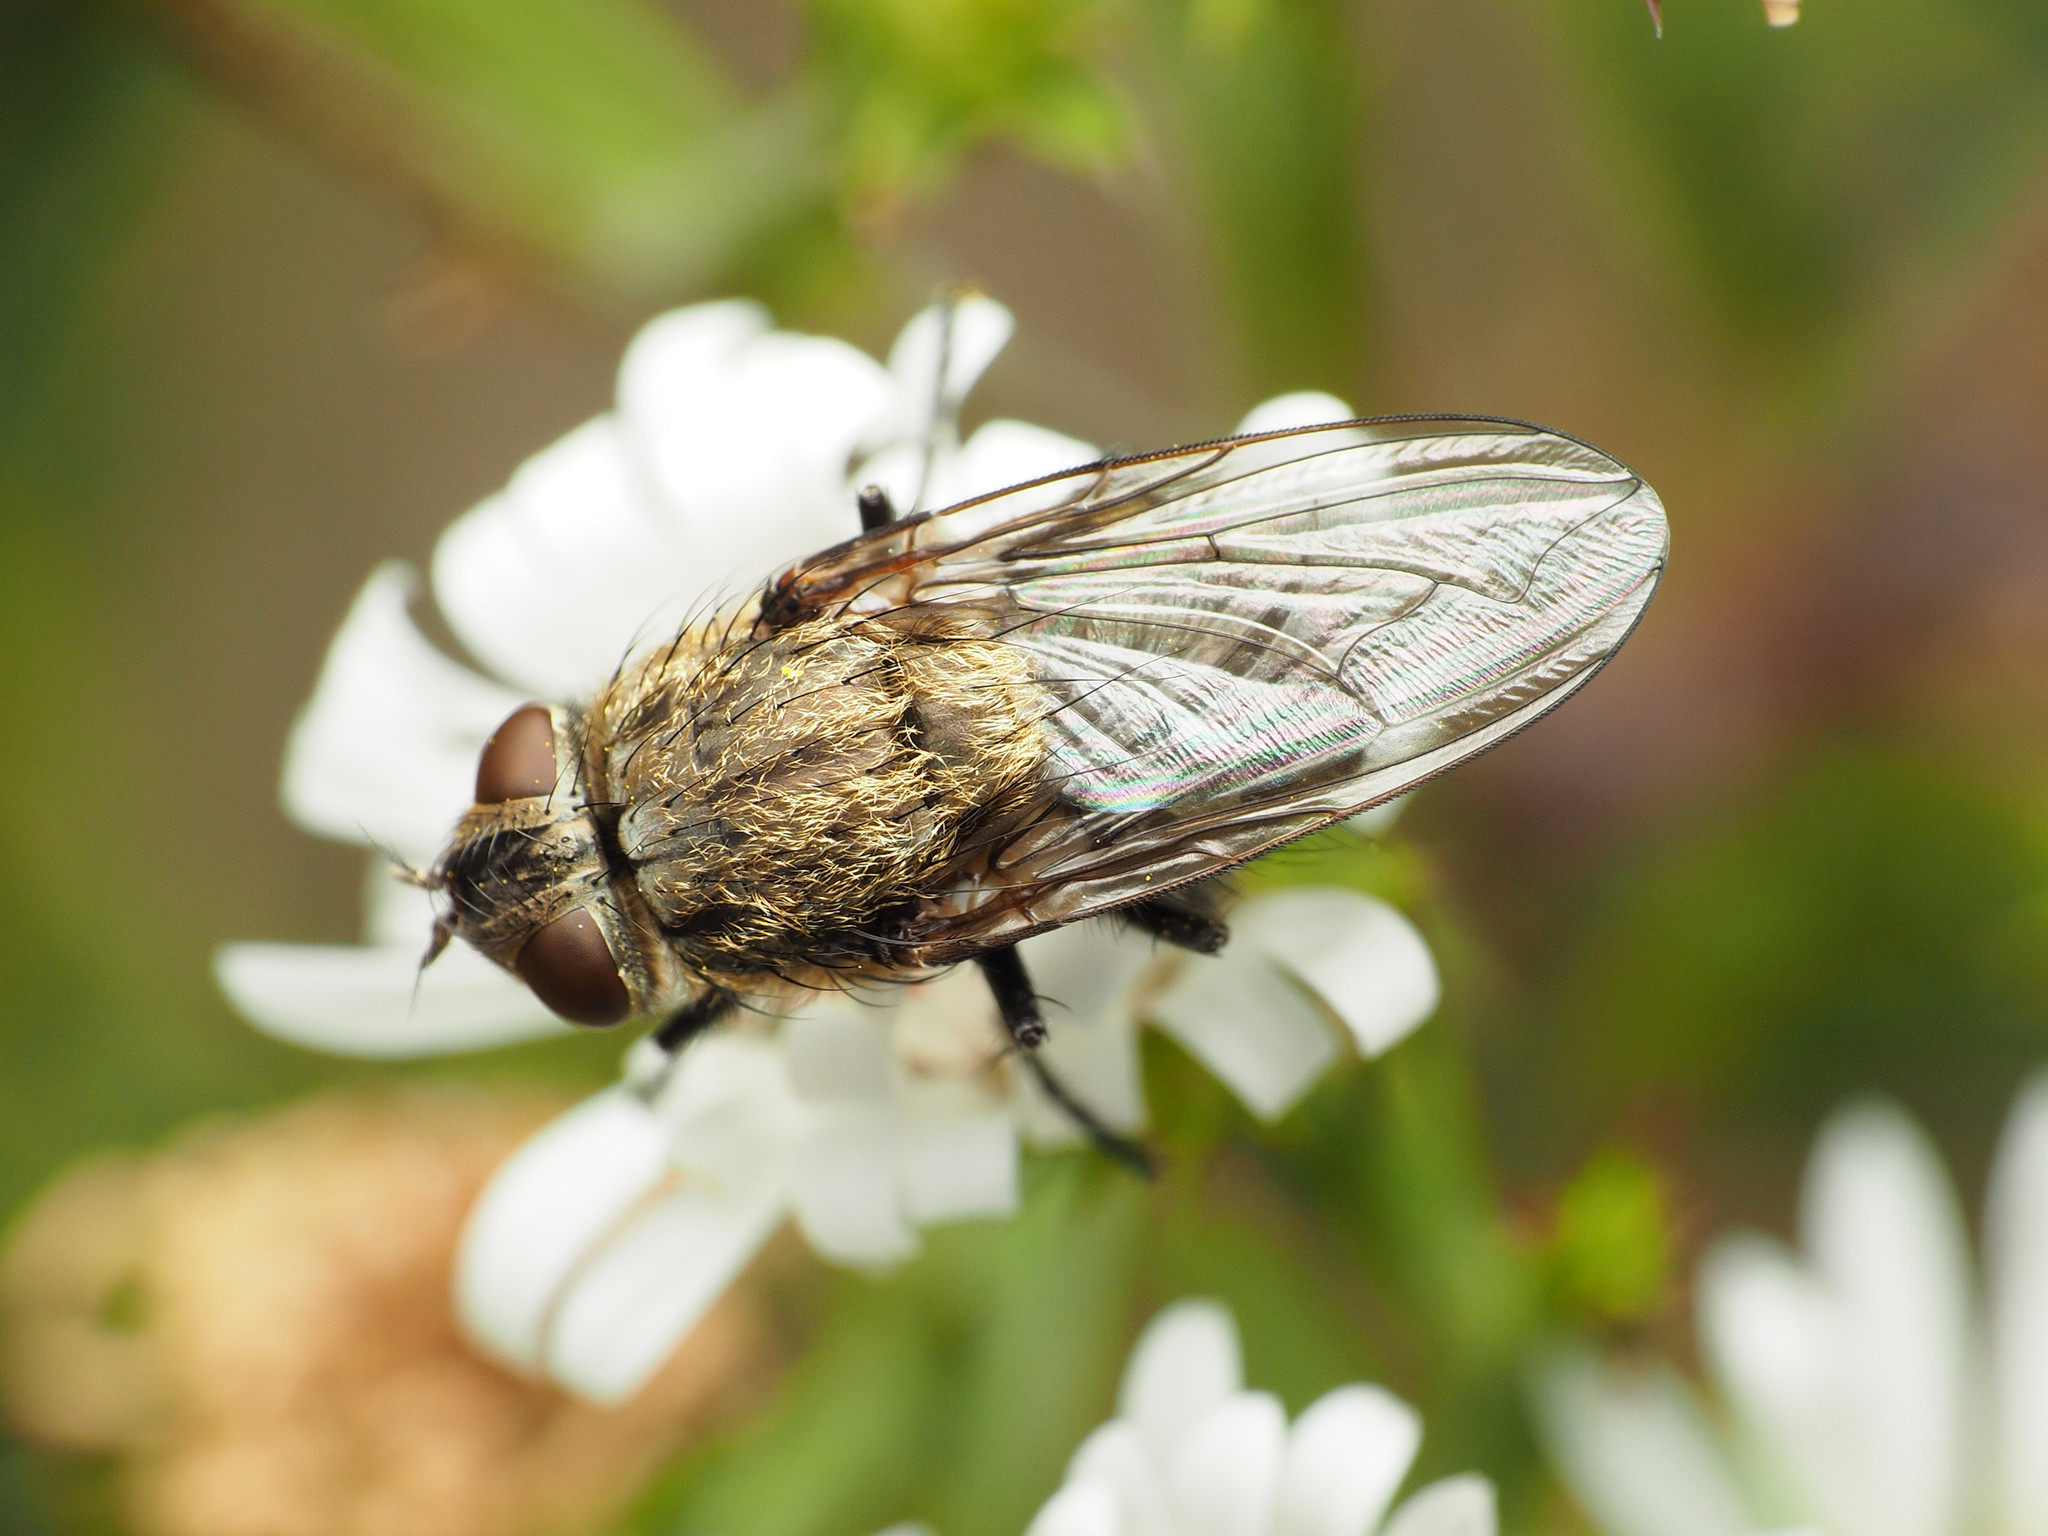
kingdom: Animalia
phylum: Arthropoda
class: Insecta
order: Diptera
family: Polleniidae
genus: Pollenia
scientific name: Pollenia
